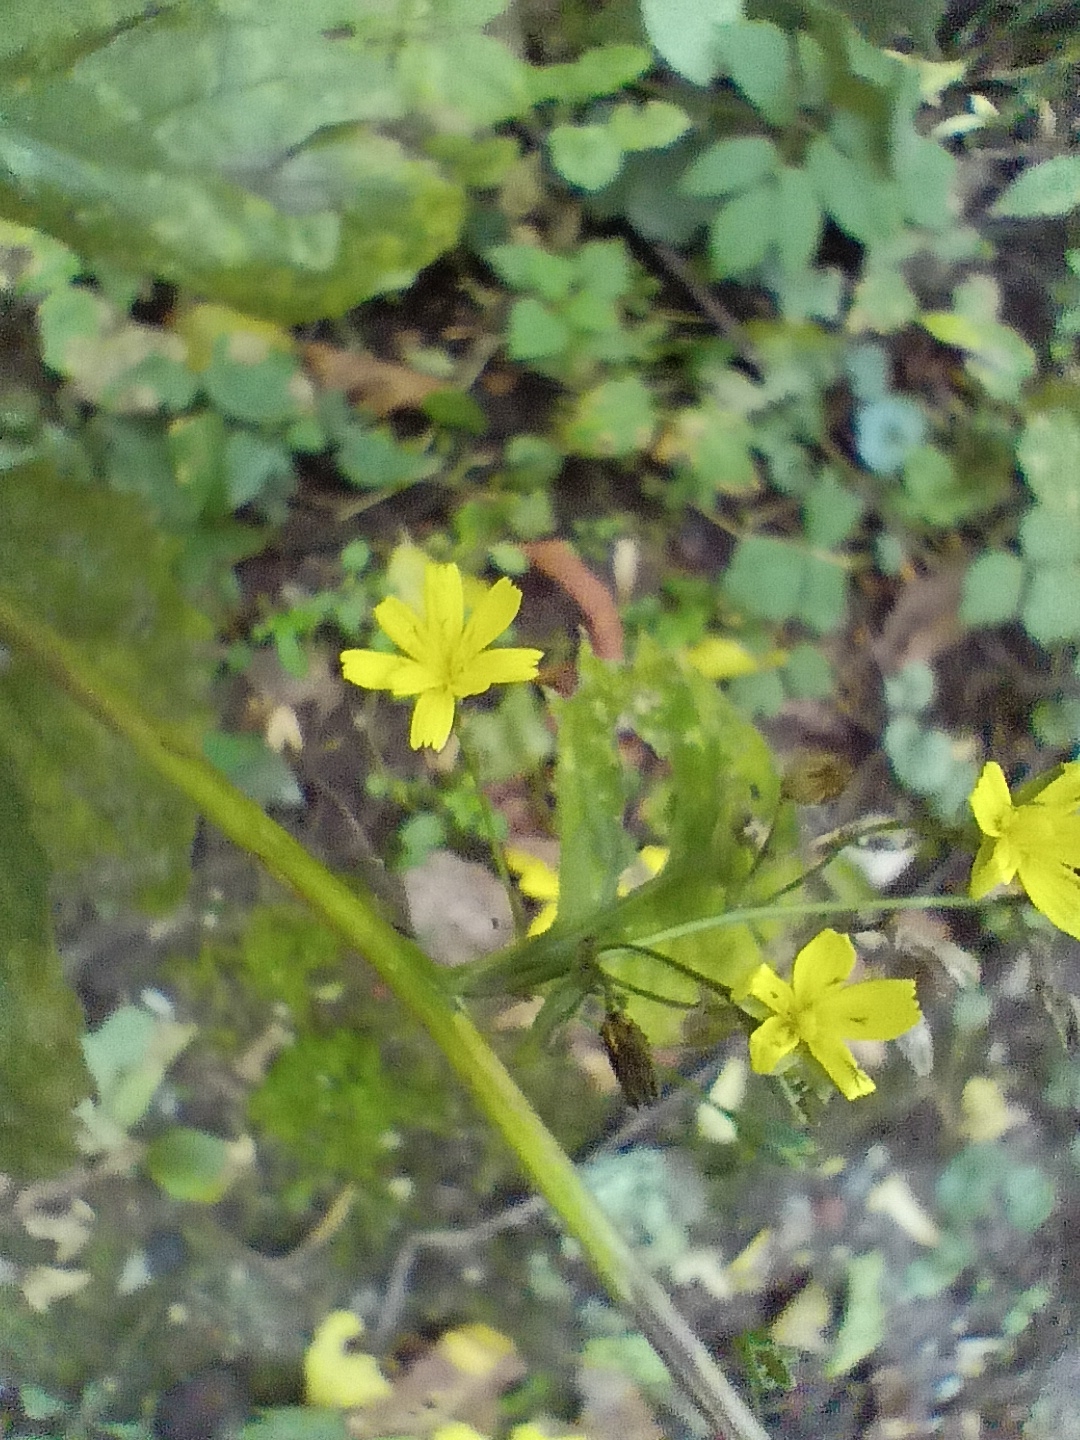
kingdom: Plantae
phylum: Tracheophyta
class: Magnoliopsida
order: Asterales
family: Asteraceae
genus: Lapsana
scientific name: Lapsana communis
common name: Nipplewort
